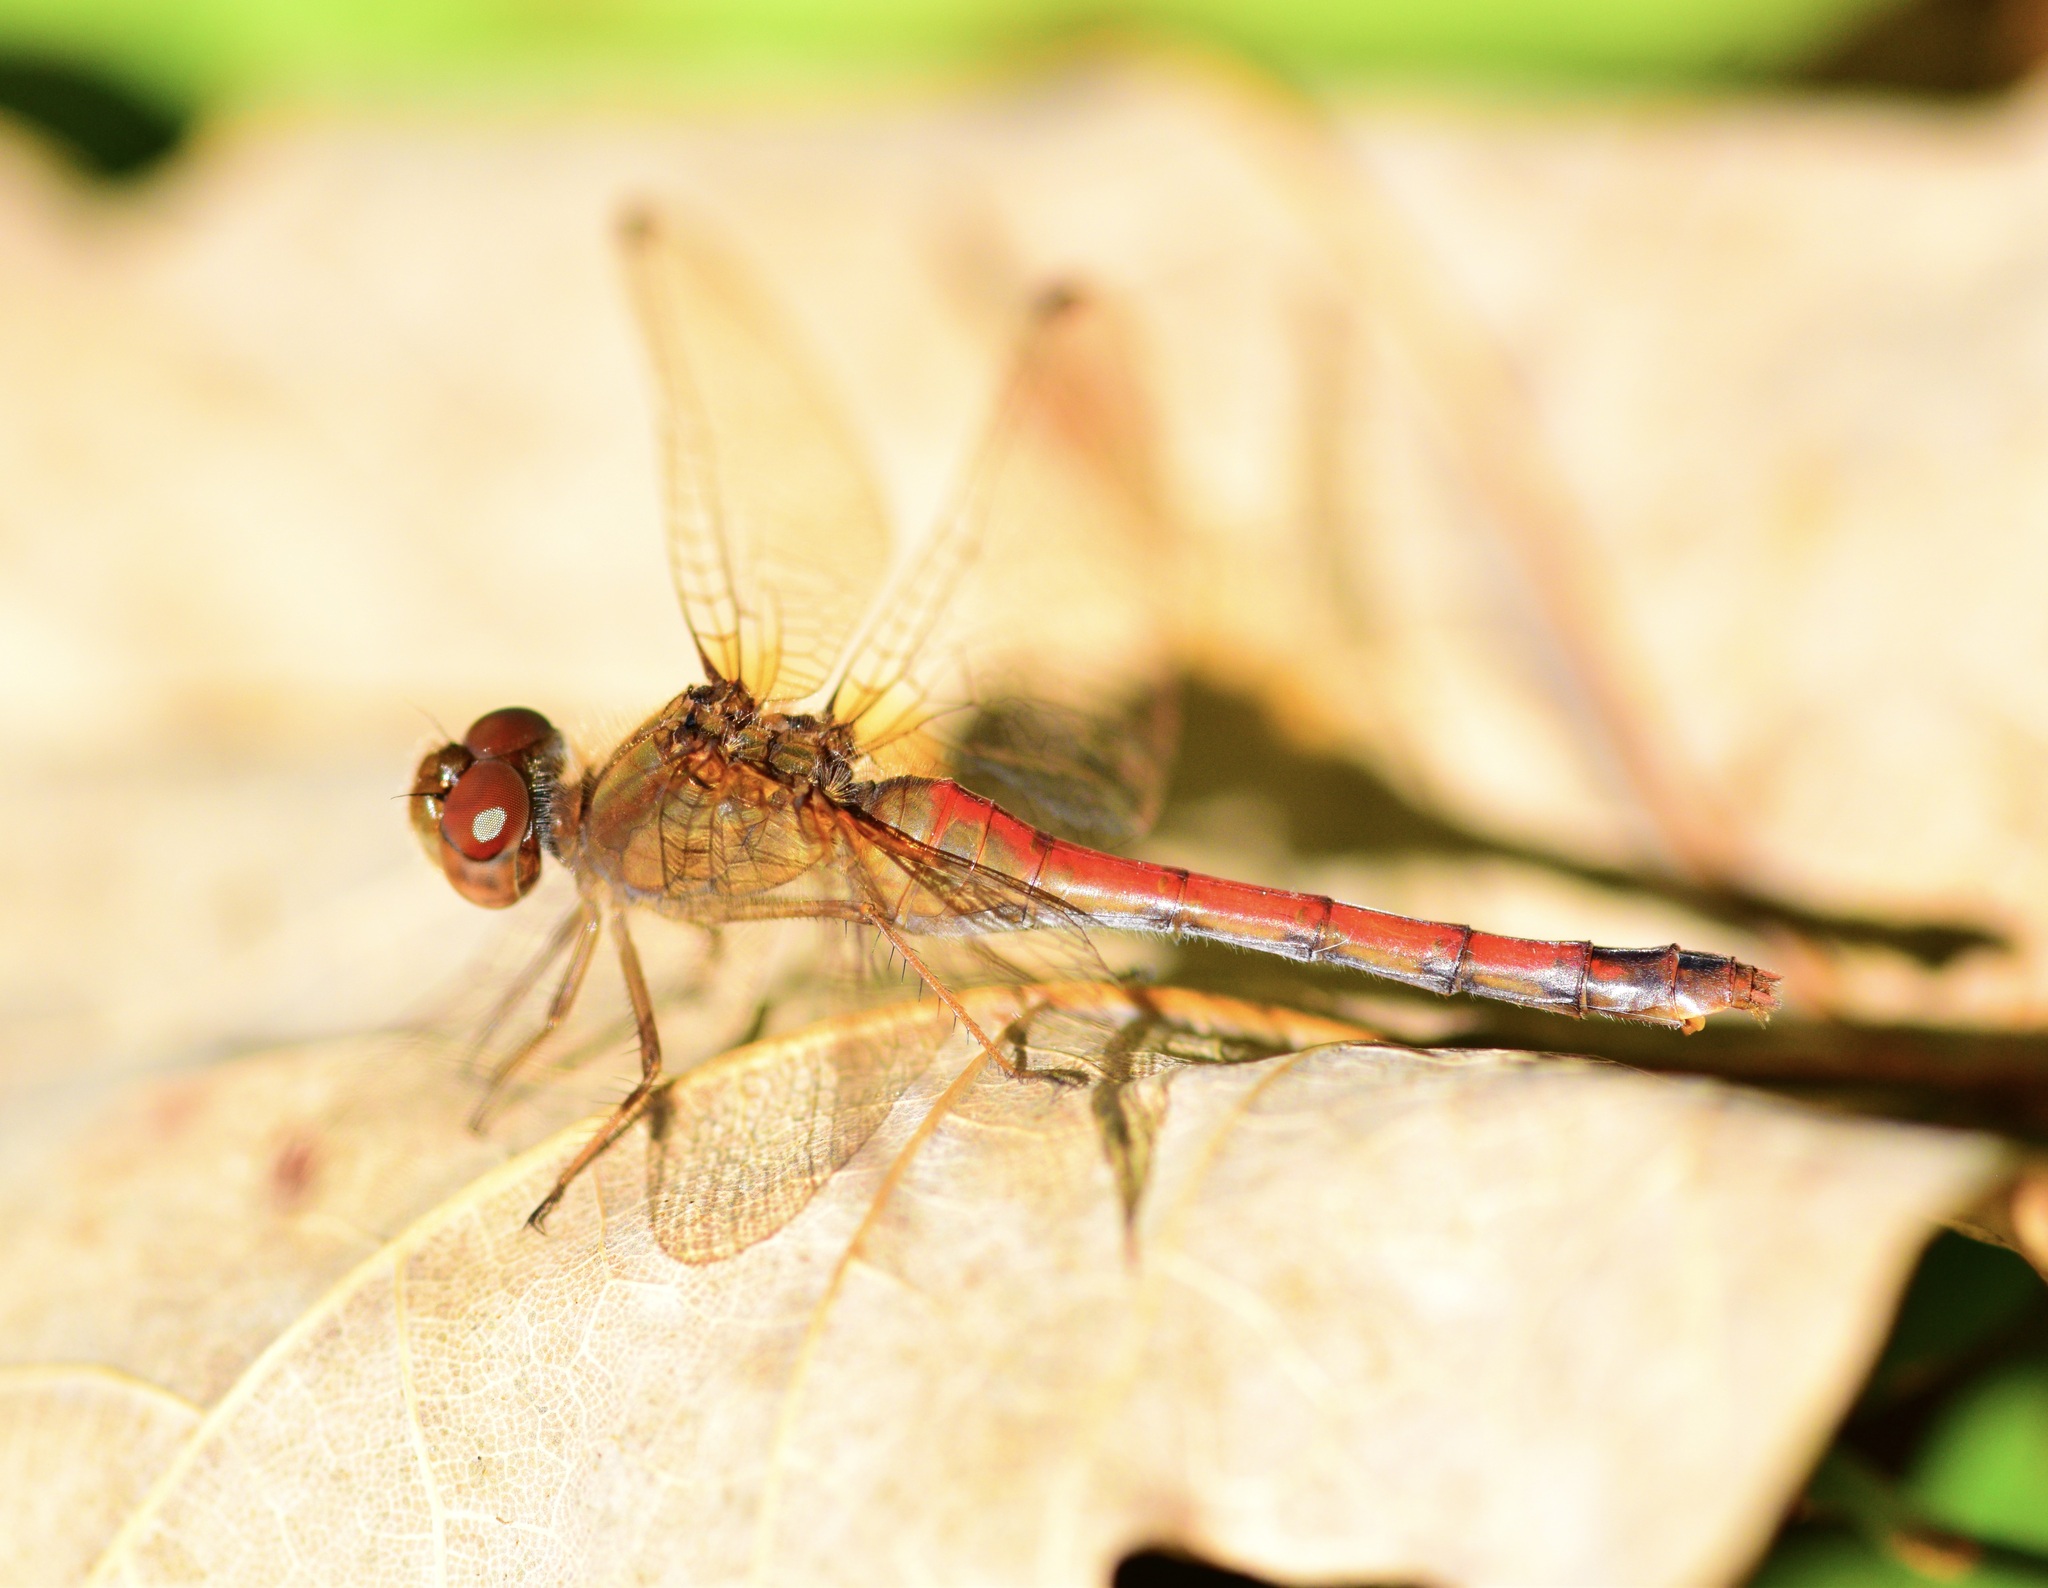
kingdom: Animalia
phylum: Arthropoda
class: Insecta
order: Odonata
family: Libellulidae
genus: Sympetrum
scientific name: Sympetrum vicinum
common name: Autumn meadowhawk
